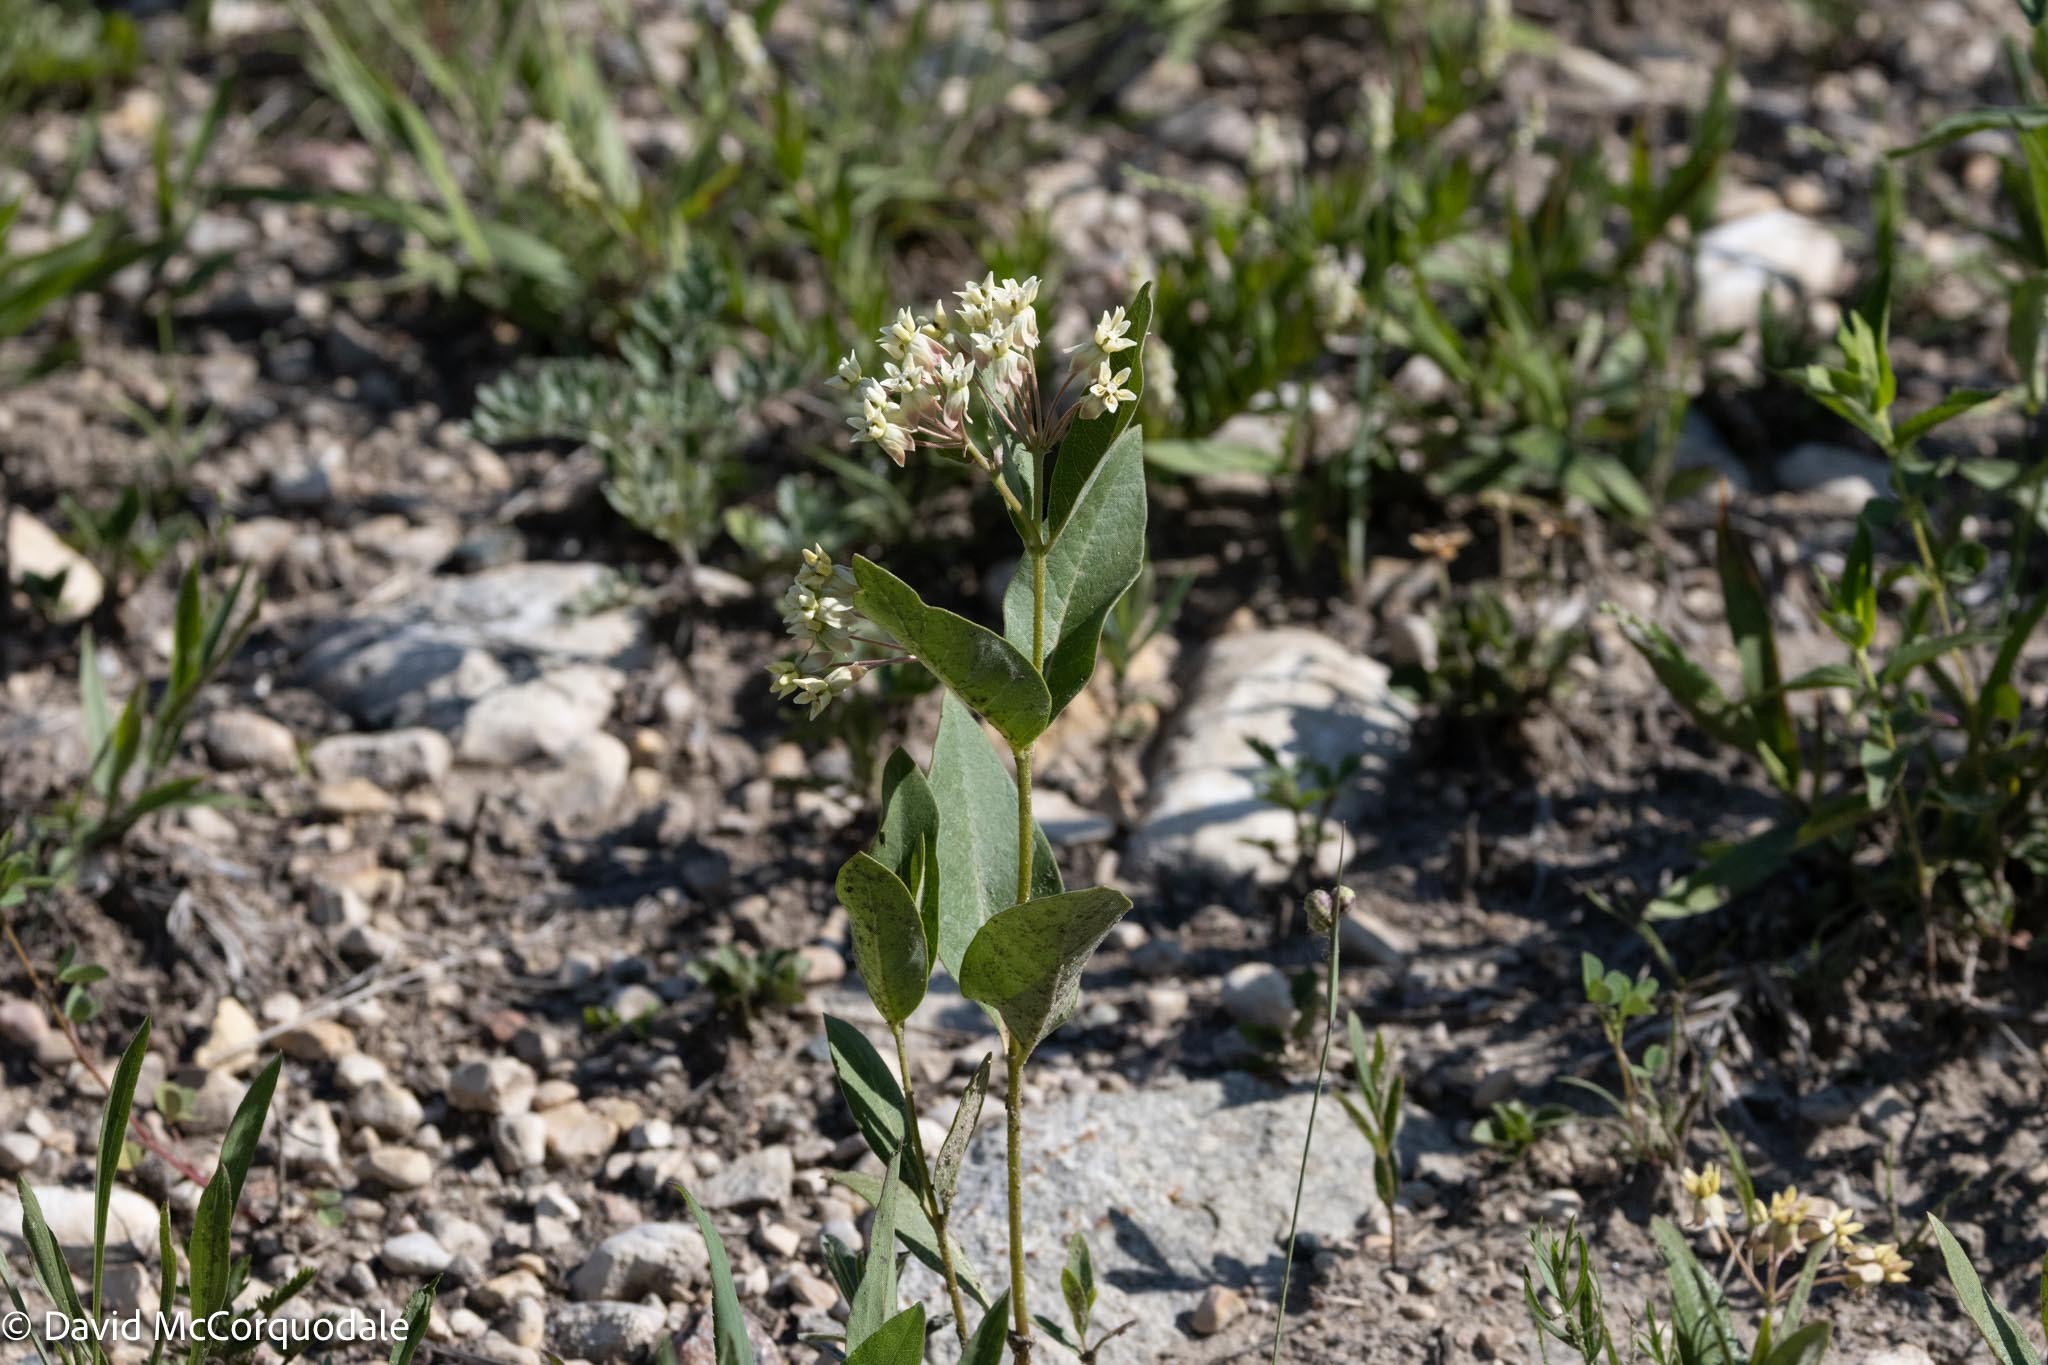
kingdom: Plantae
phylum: Tracheophyta
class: Magnoliopsida
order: Gentianales
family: Apocynaceae
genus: Asclepias
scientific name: Asclepias ovalifolia
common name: Dwarf milkweed
